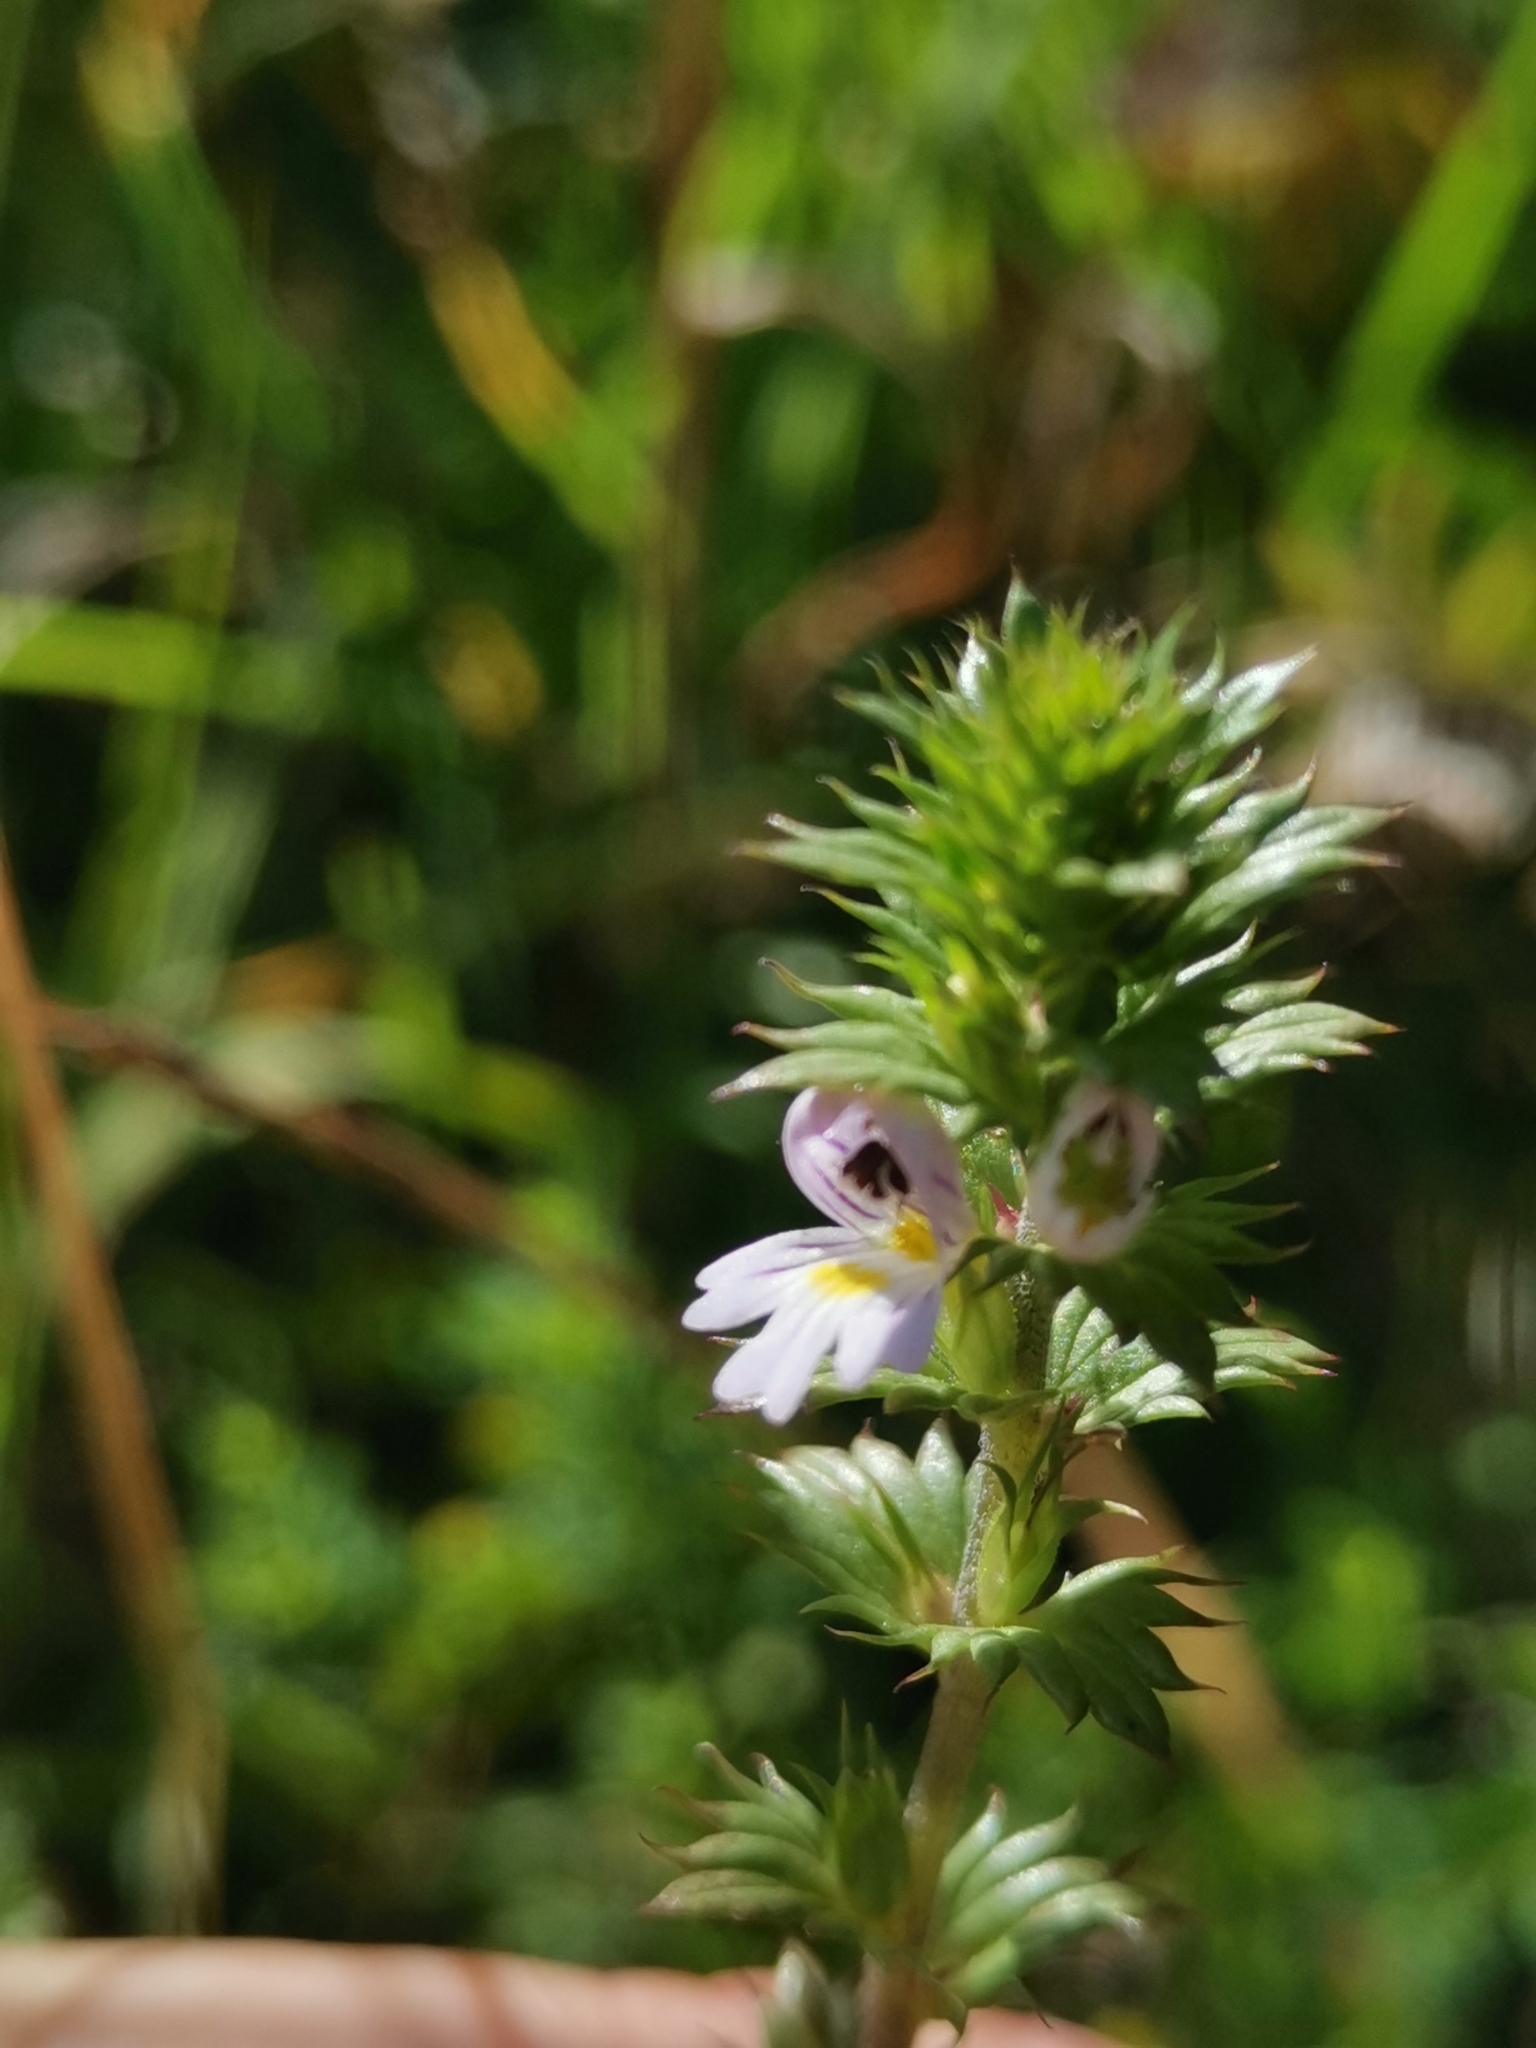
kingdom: Plantae
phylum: Tracheophyta
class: Magnoliopsida
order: Lamiales
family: Orobanchaceae
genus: Euphrasia
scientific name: Euphrasia stricta
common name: Drug eyebright
